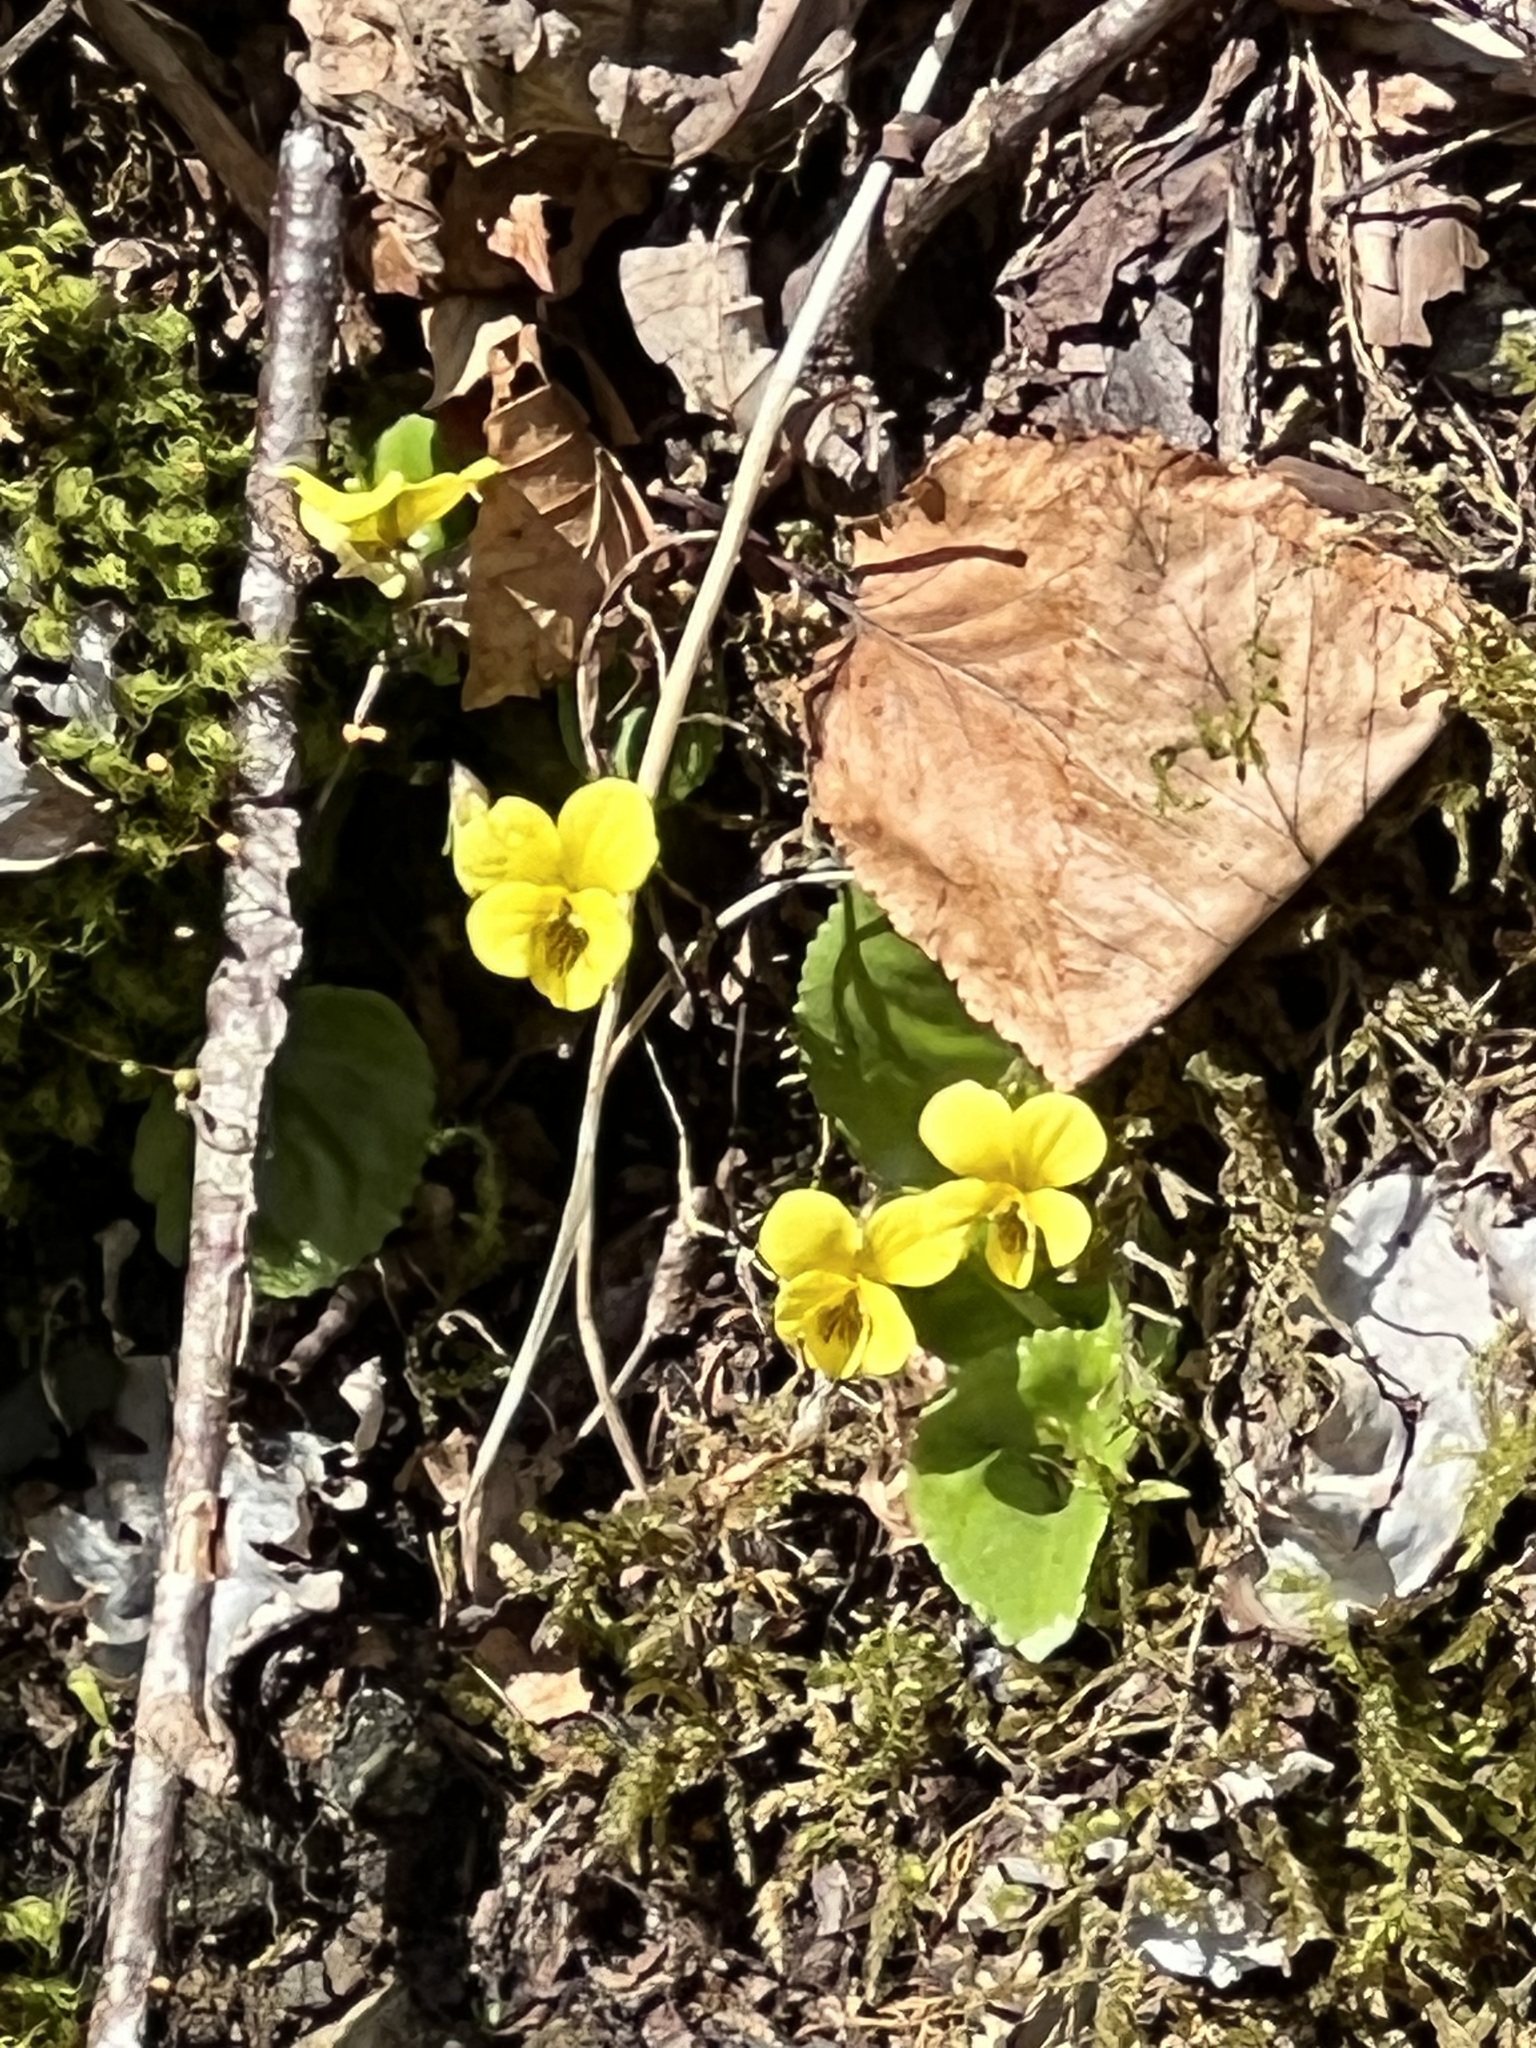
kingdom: Plantae
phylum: Tracheophyta
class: Magnoliopsida
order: Malpighiales
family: Violaceae
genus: Viola
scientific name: Viola rotundifolia
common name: Early yellow violet
